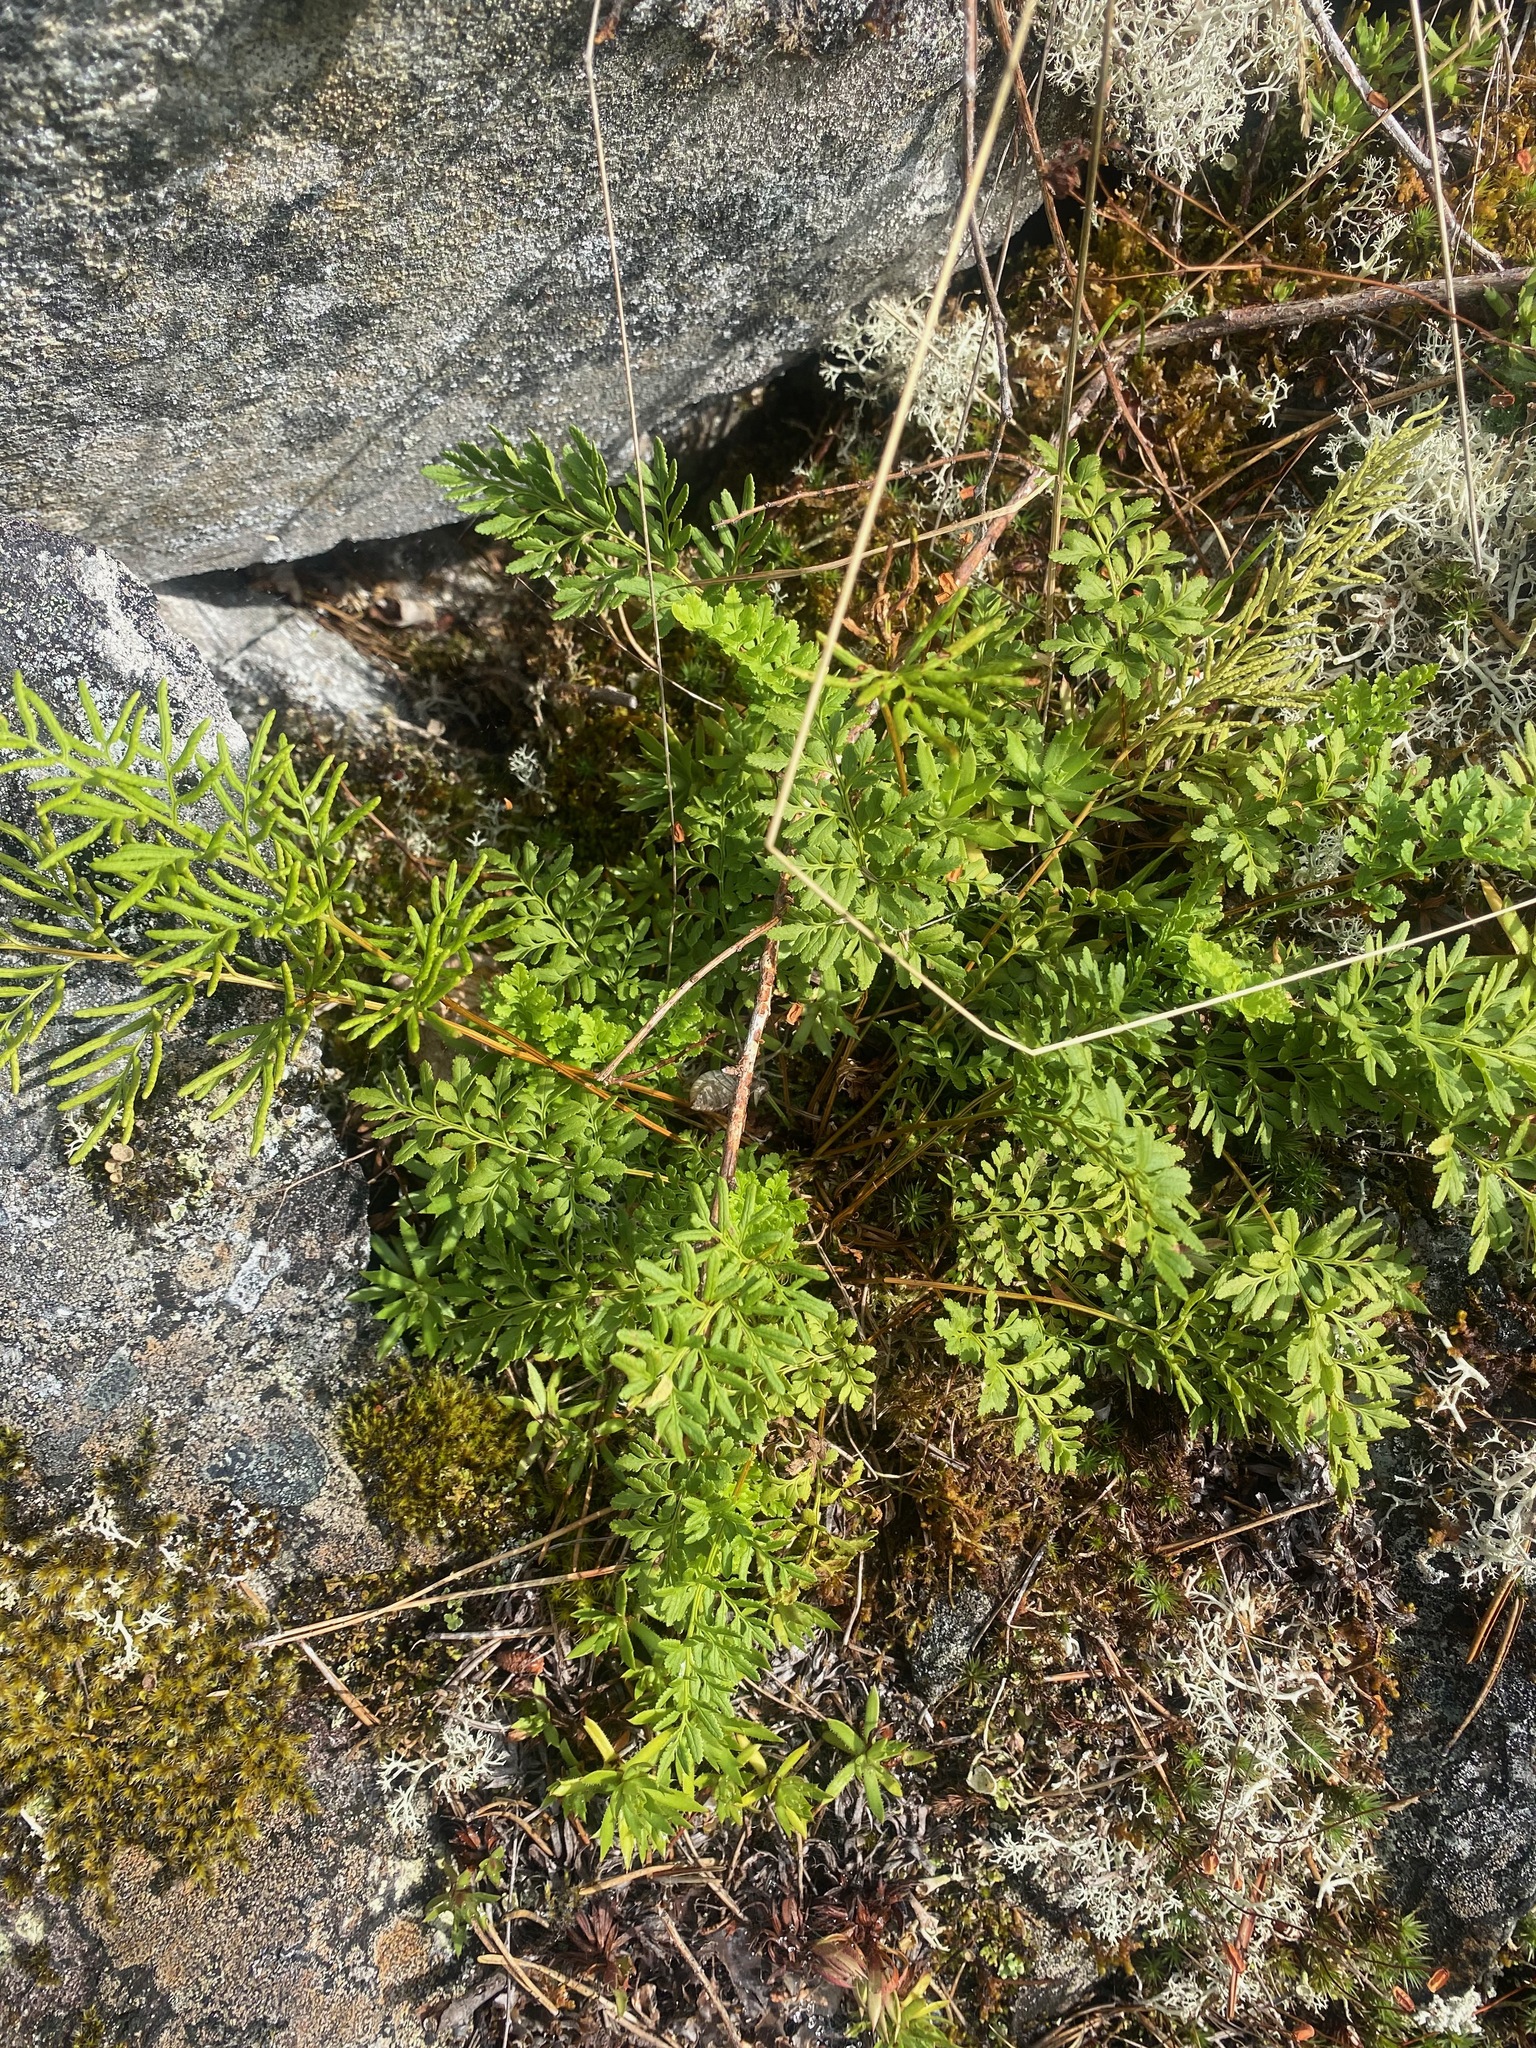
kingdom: Plantae
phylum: Tracheophyta
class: Polypodiopsida
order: Polypodiales
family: Pteridaceae
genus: Cryptogramma
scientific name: Cryptogramma acrostichoides
